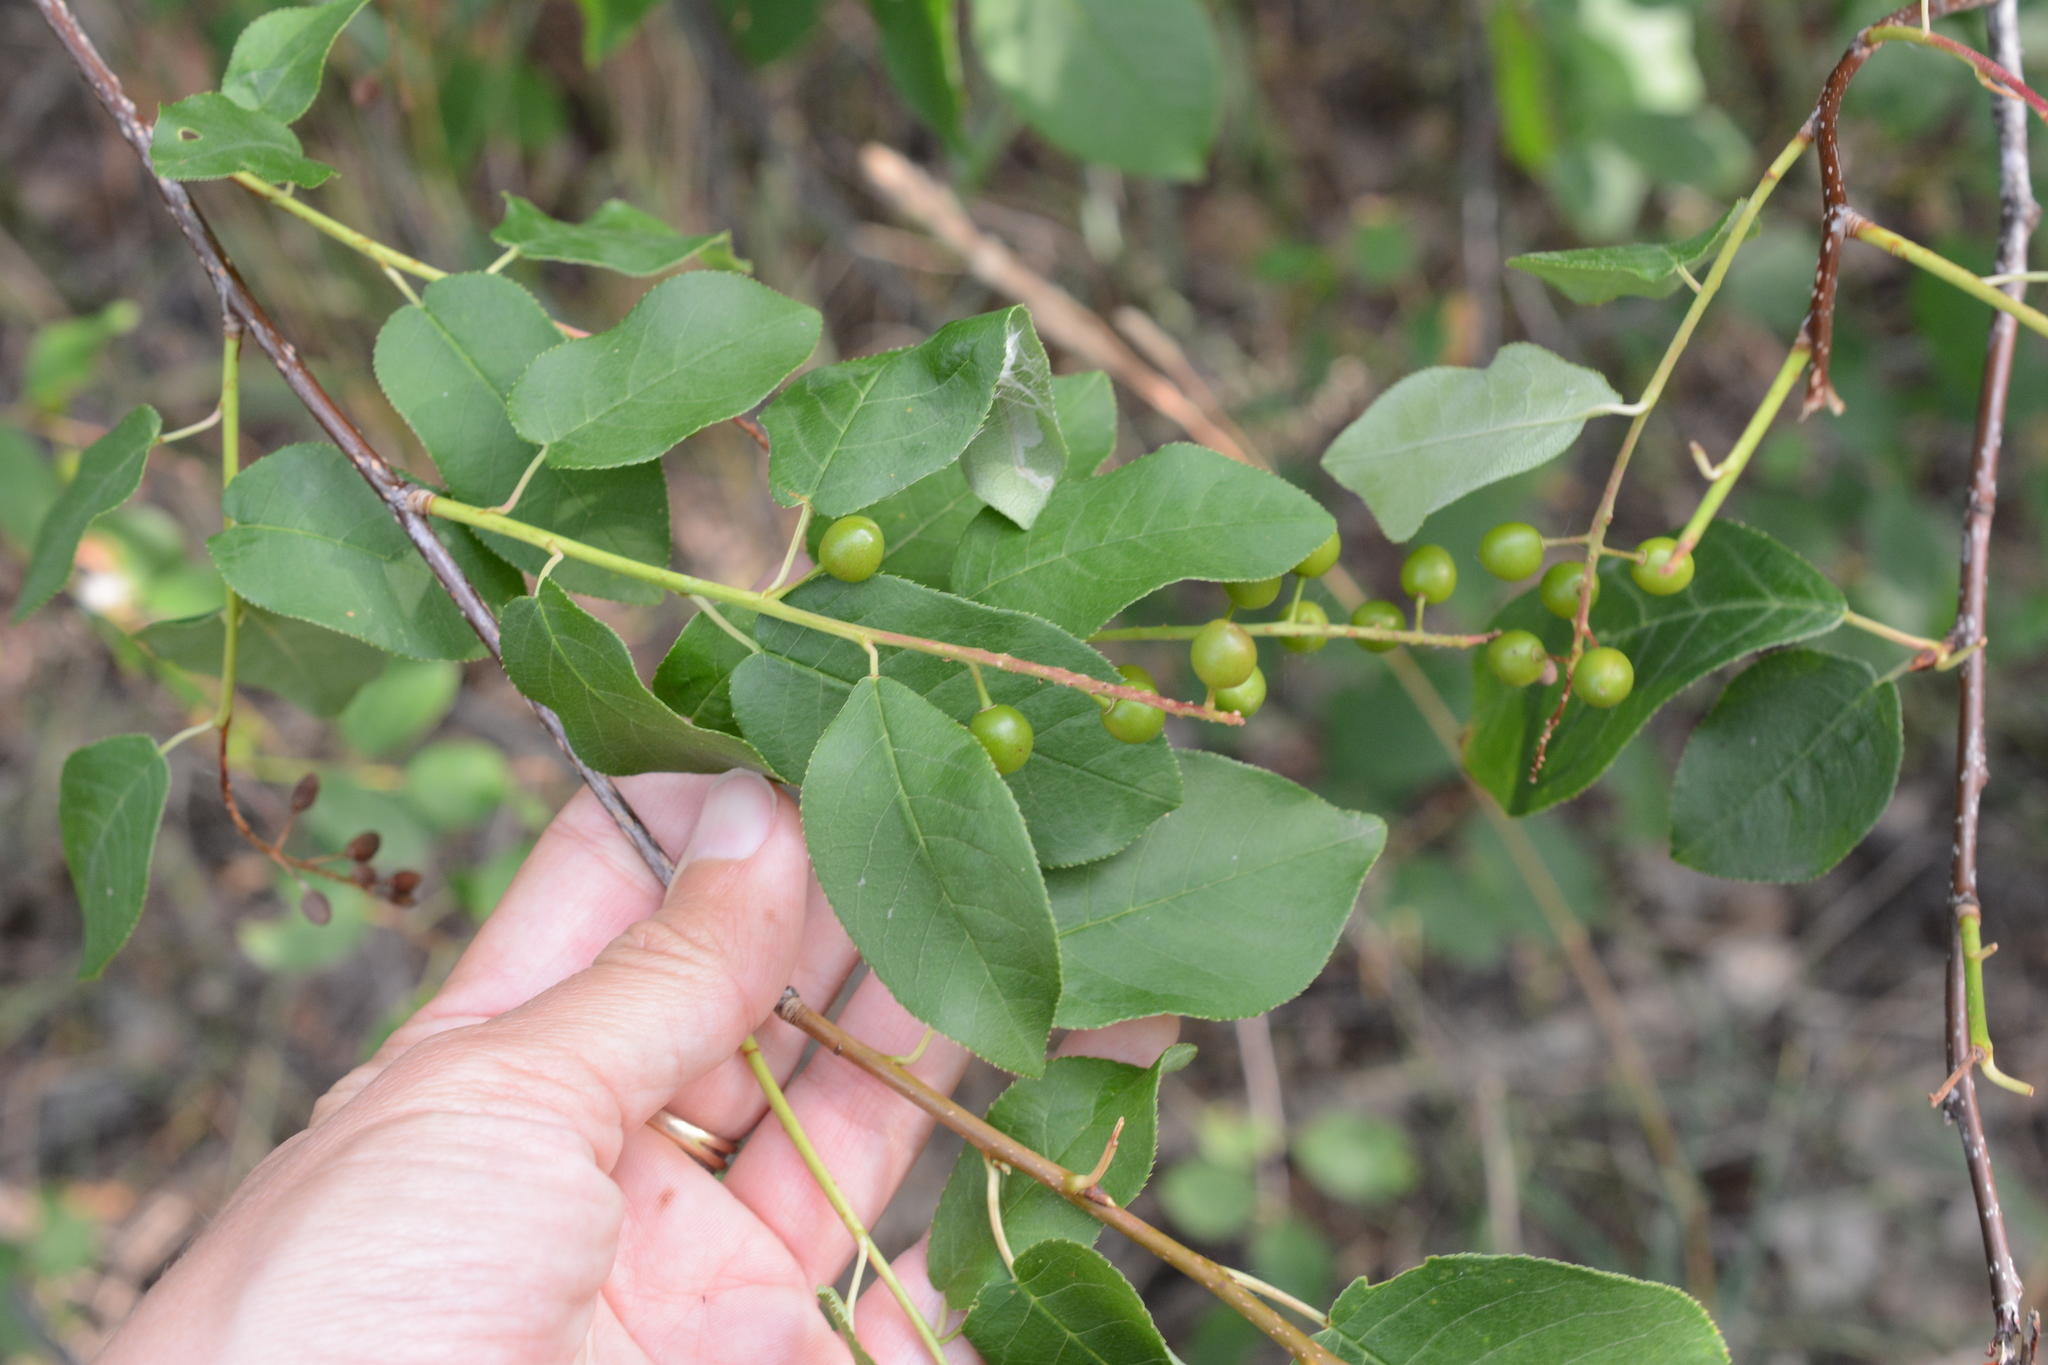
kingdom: Plantae
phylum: Tracheophyta
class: Magnoliopsida
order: Rosales
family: Rosaceae
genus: Prunus
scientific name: Prunus virginiana
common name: Chokecherry
